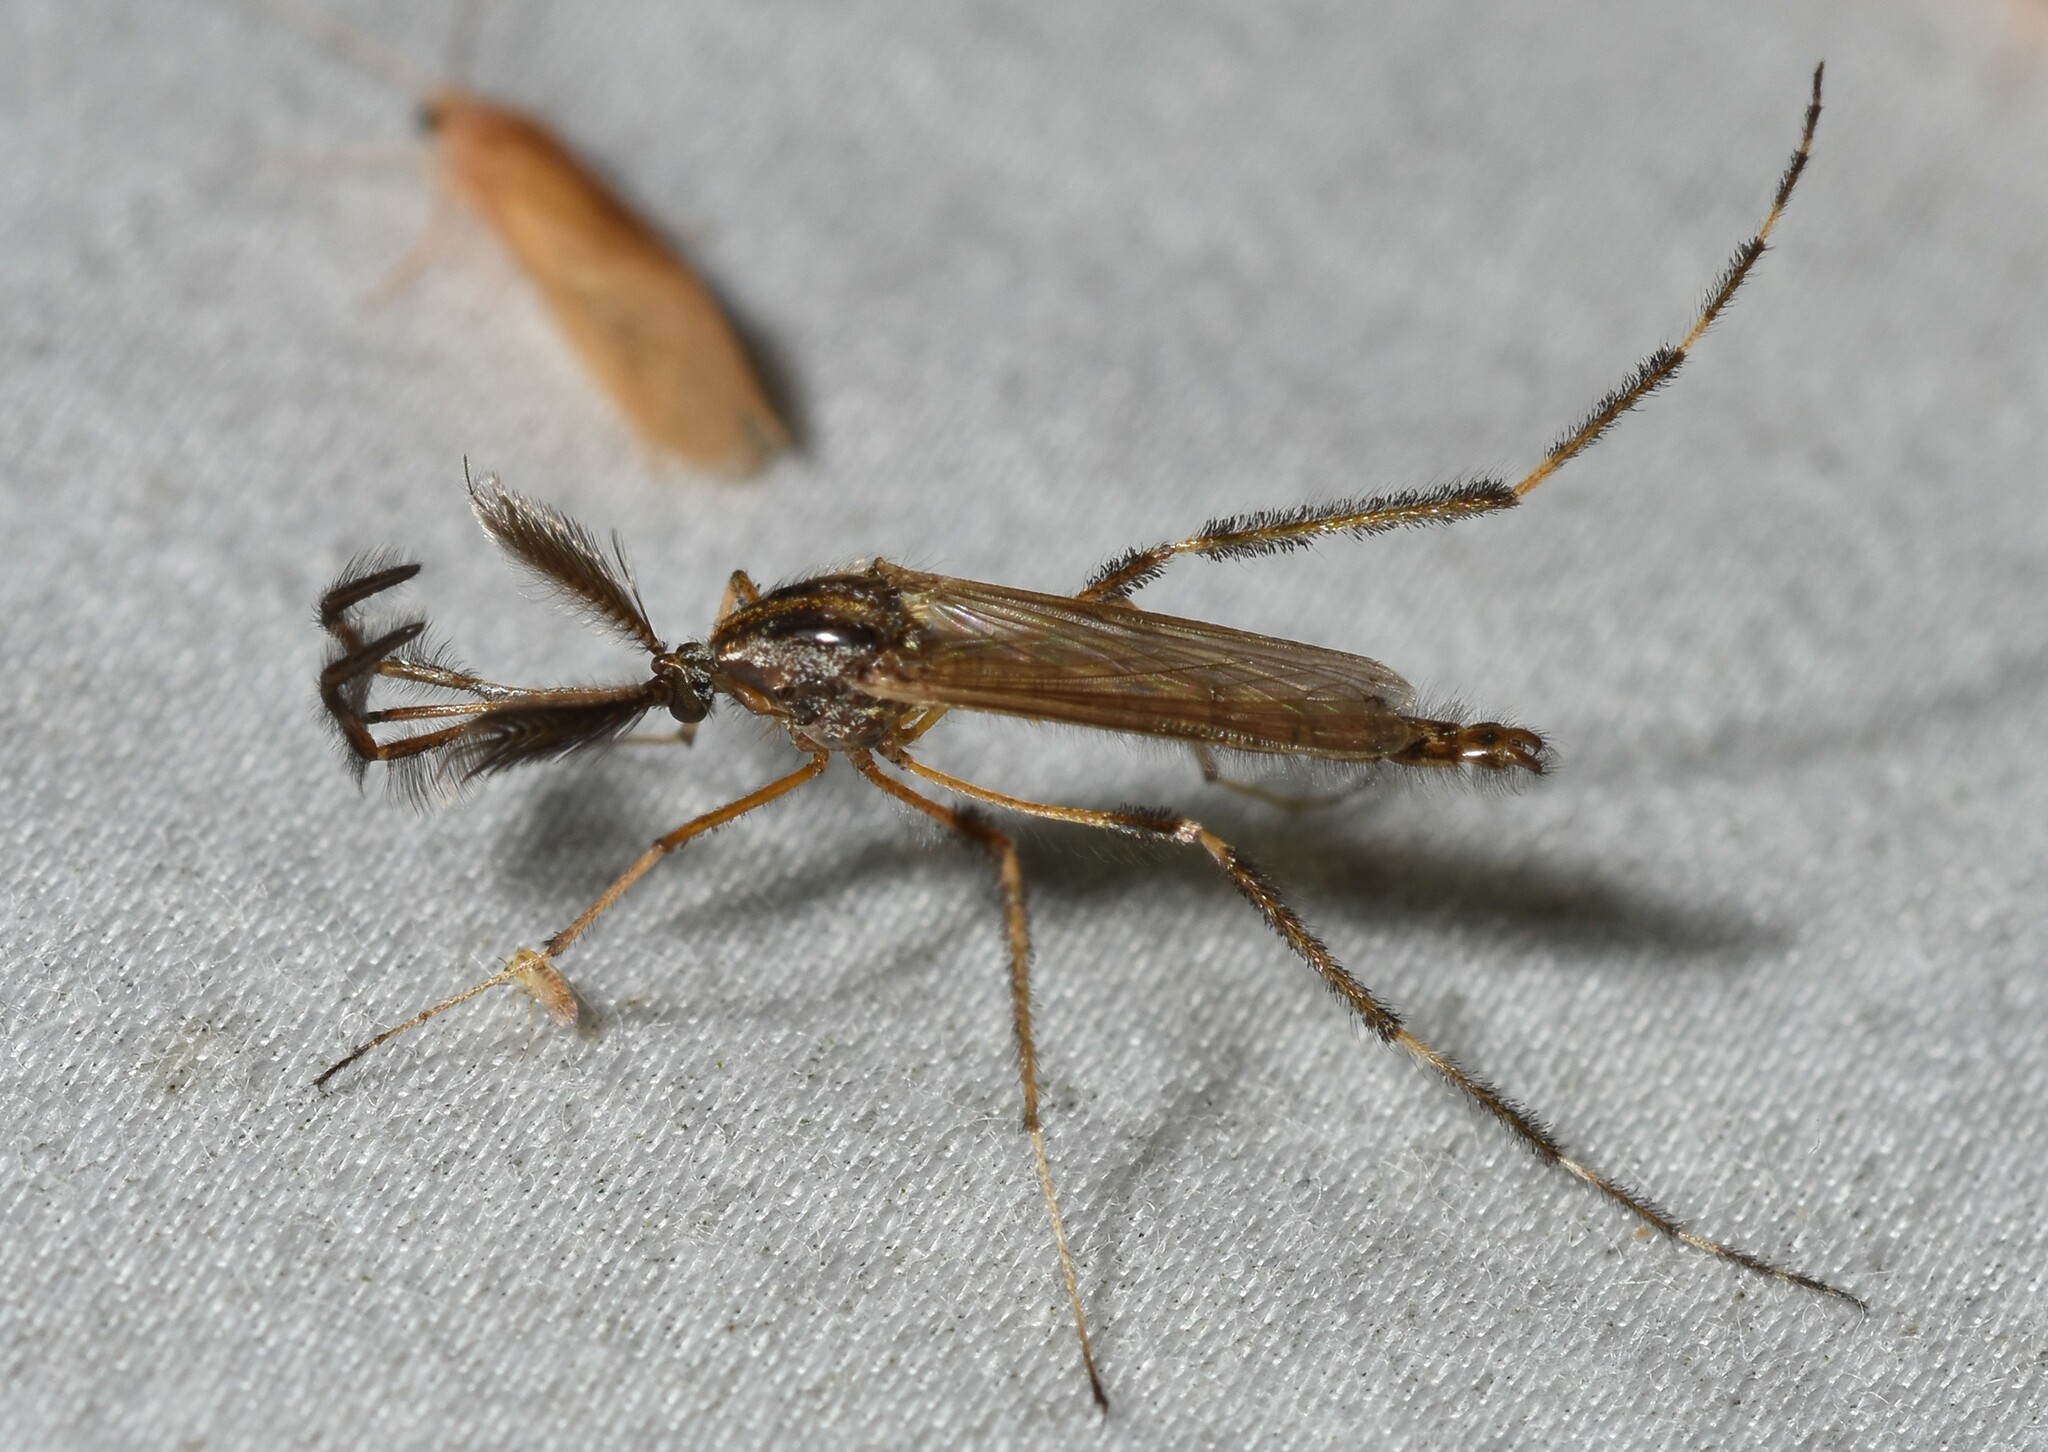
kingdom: Animalia
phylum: Arthropoda
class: Insecta
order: Diptera
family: Culicidae
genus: Psorophora
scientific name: Psorophora ciliata
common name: Gallinipper
